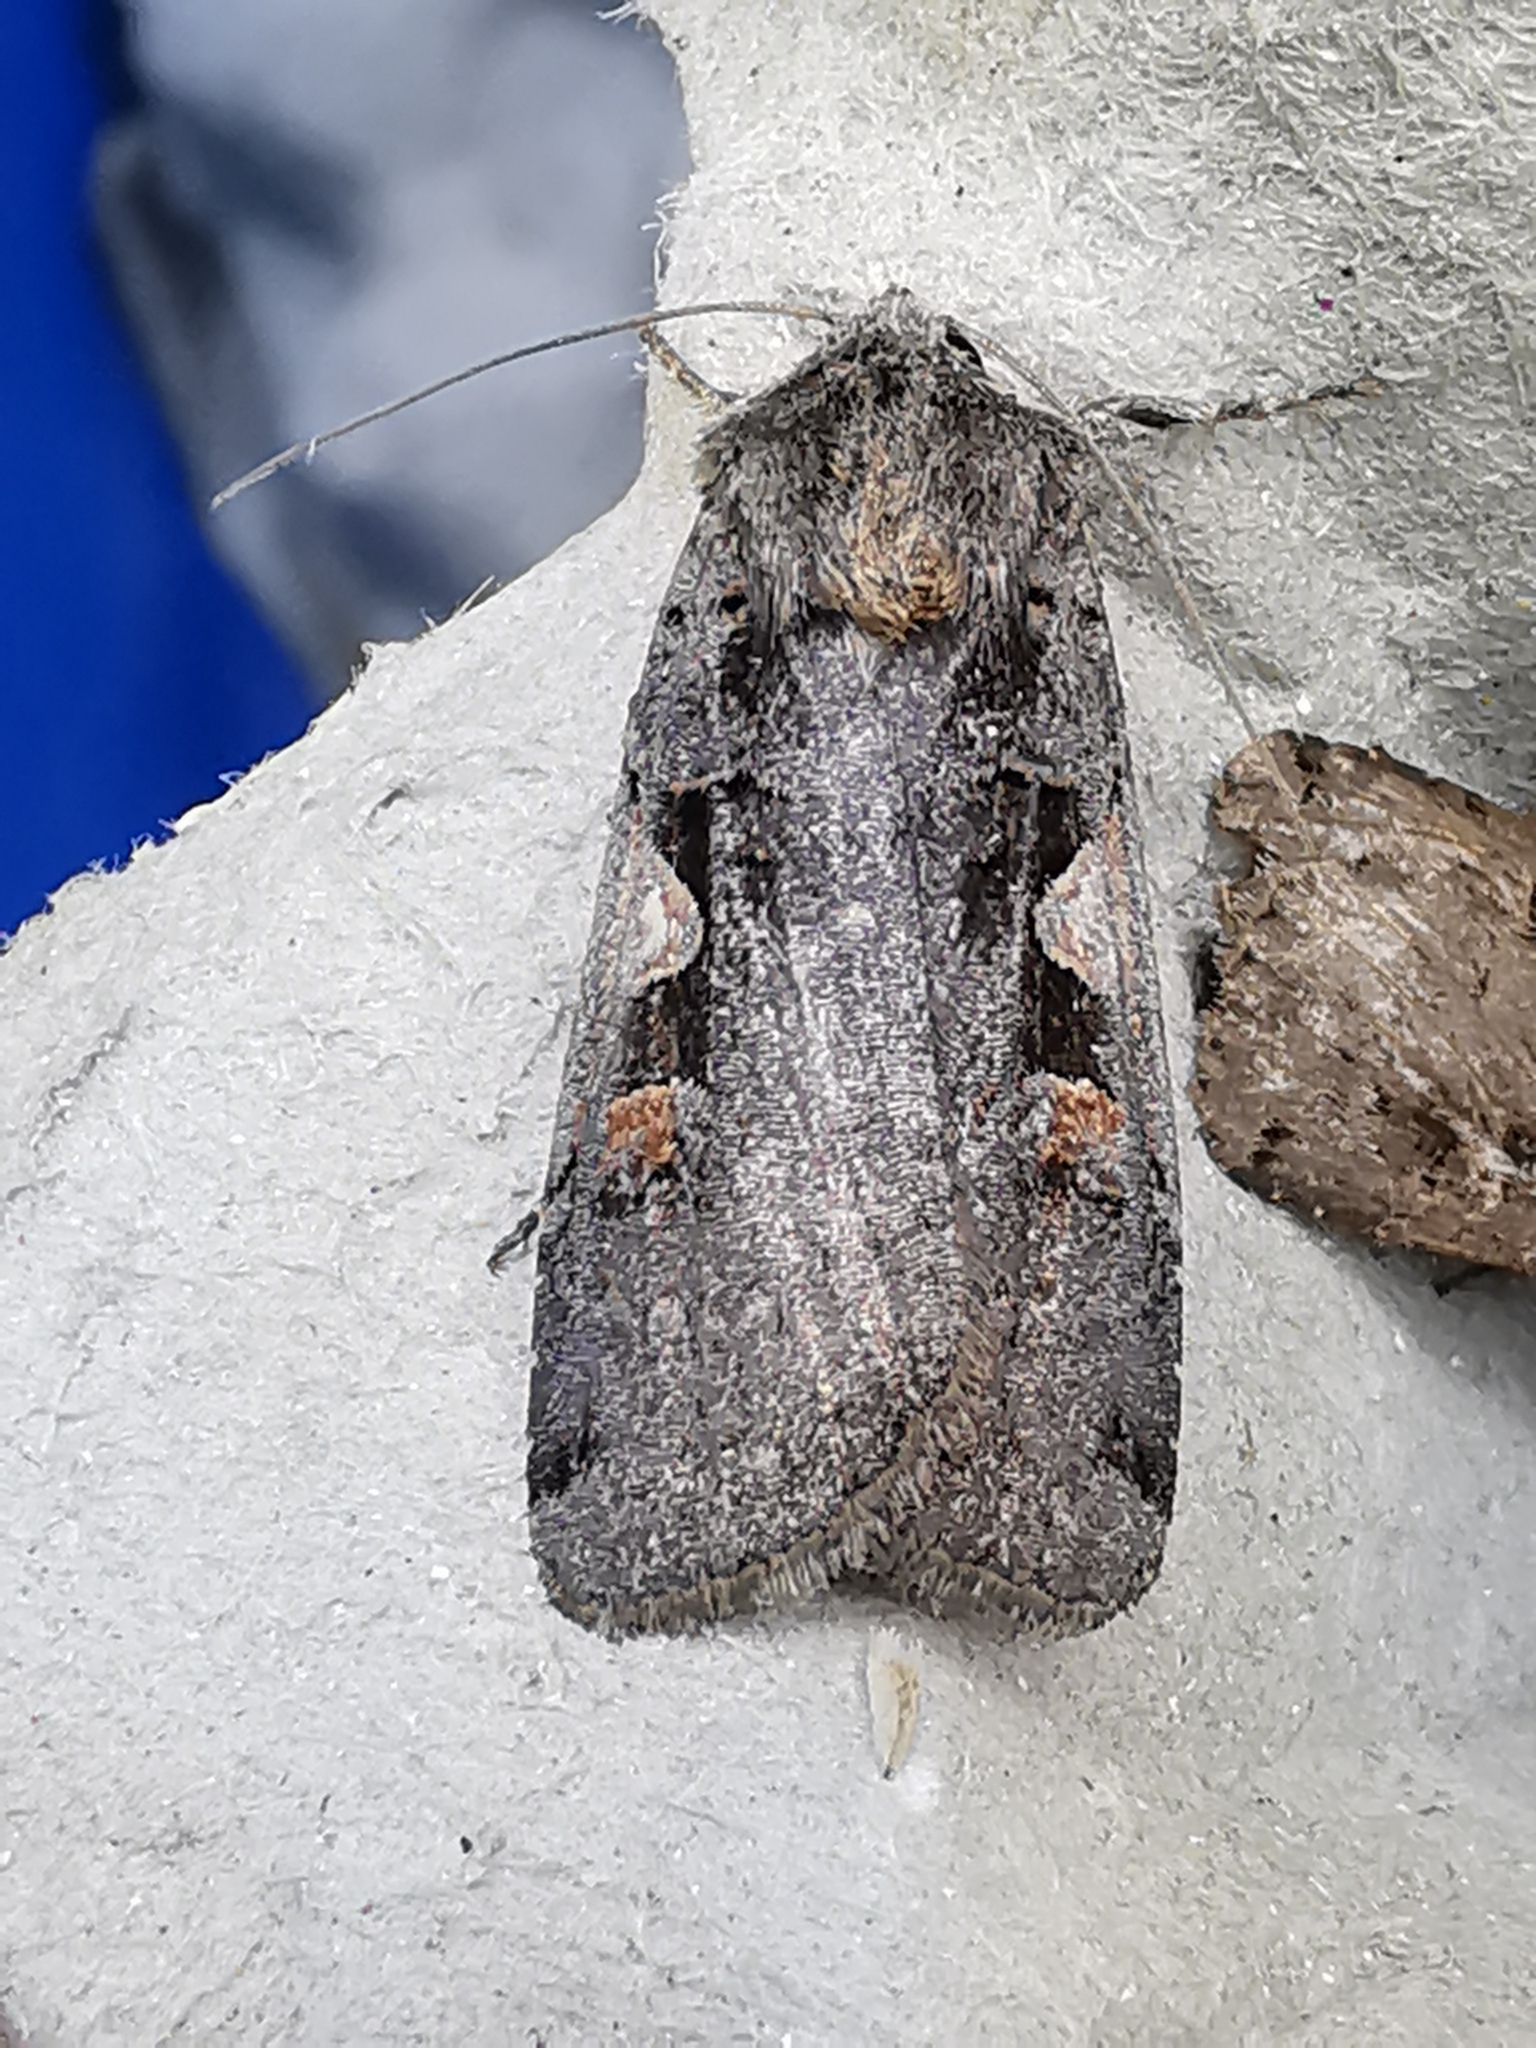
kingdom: Animalia
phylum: Arthropoda
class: Insecta
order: Lepidoptera
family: Noctuidae
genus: Xestia
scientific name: Xestia c-nigrum
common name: Setaceous hebrew character
